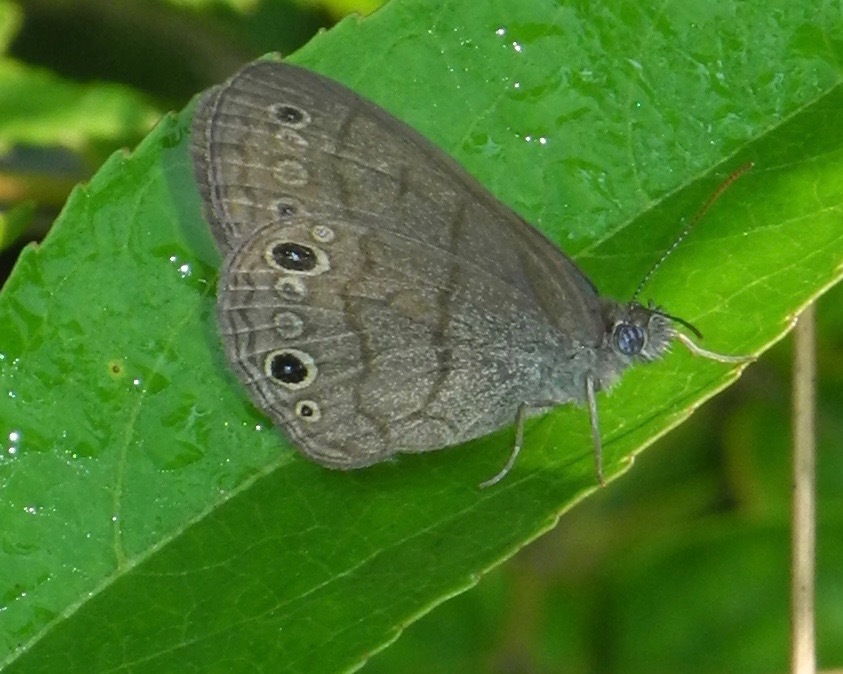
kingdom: Animalia
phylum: Arthropoda
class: Insecta
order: Lepidoptera
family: Nymphalidae
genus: Hermeuptychia
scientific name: Hermeuptychia hermes
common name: Hermes satyr
